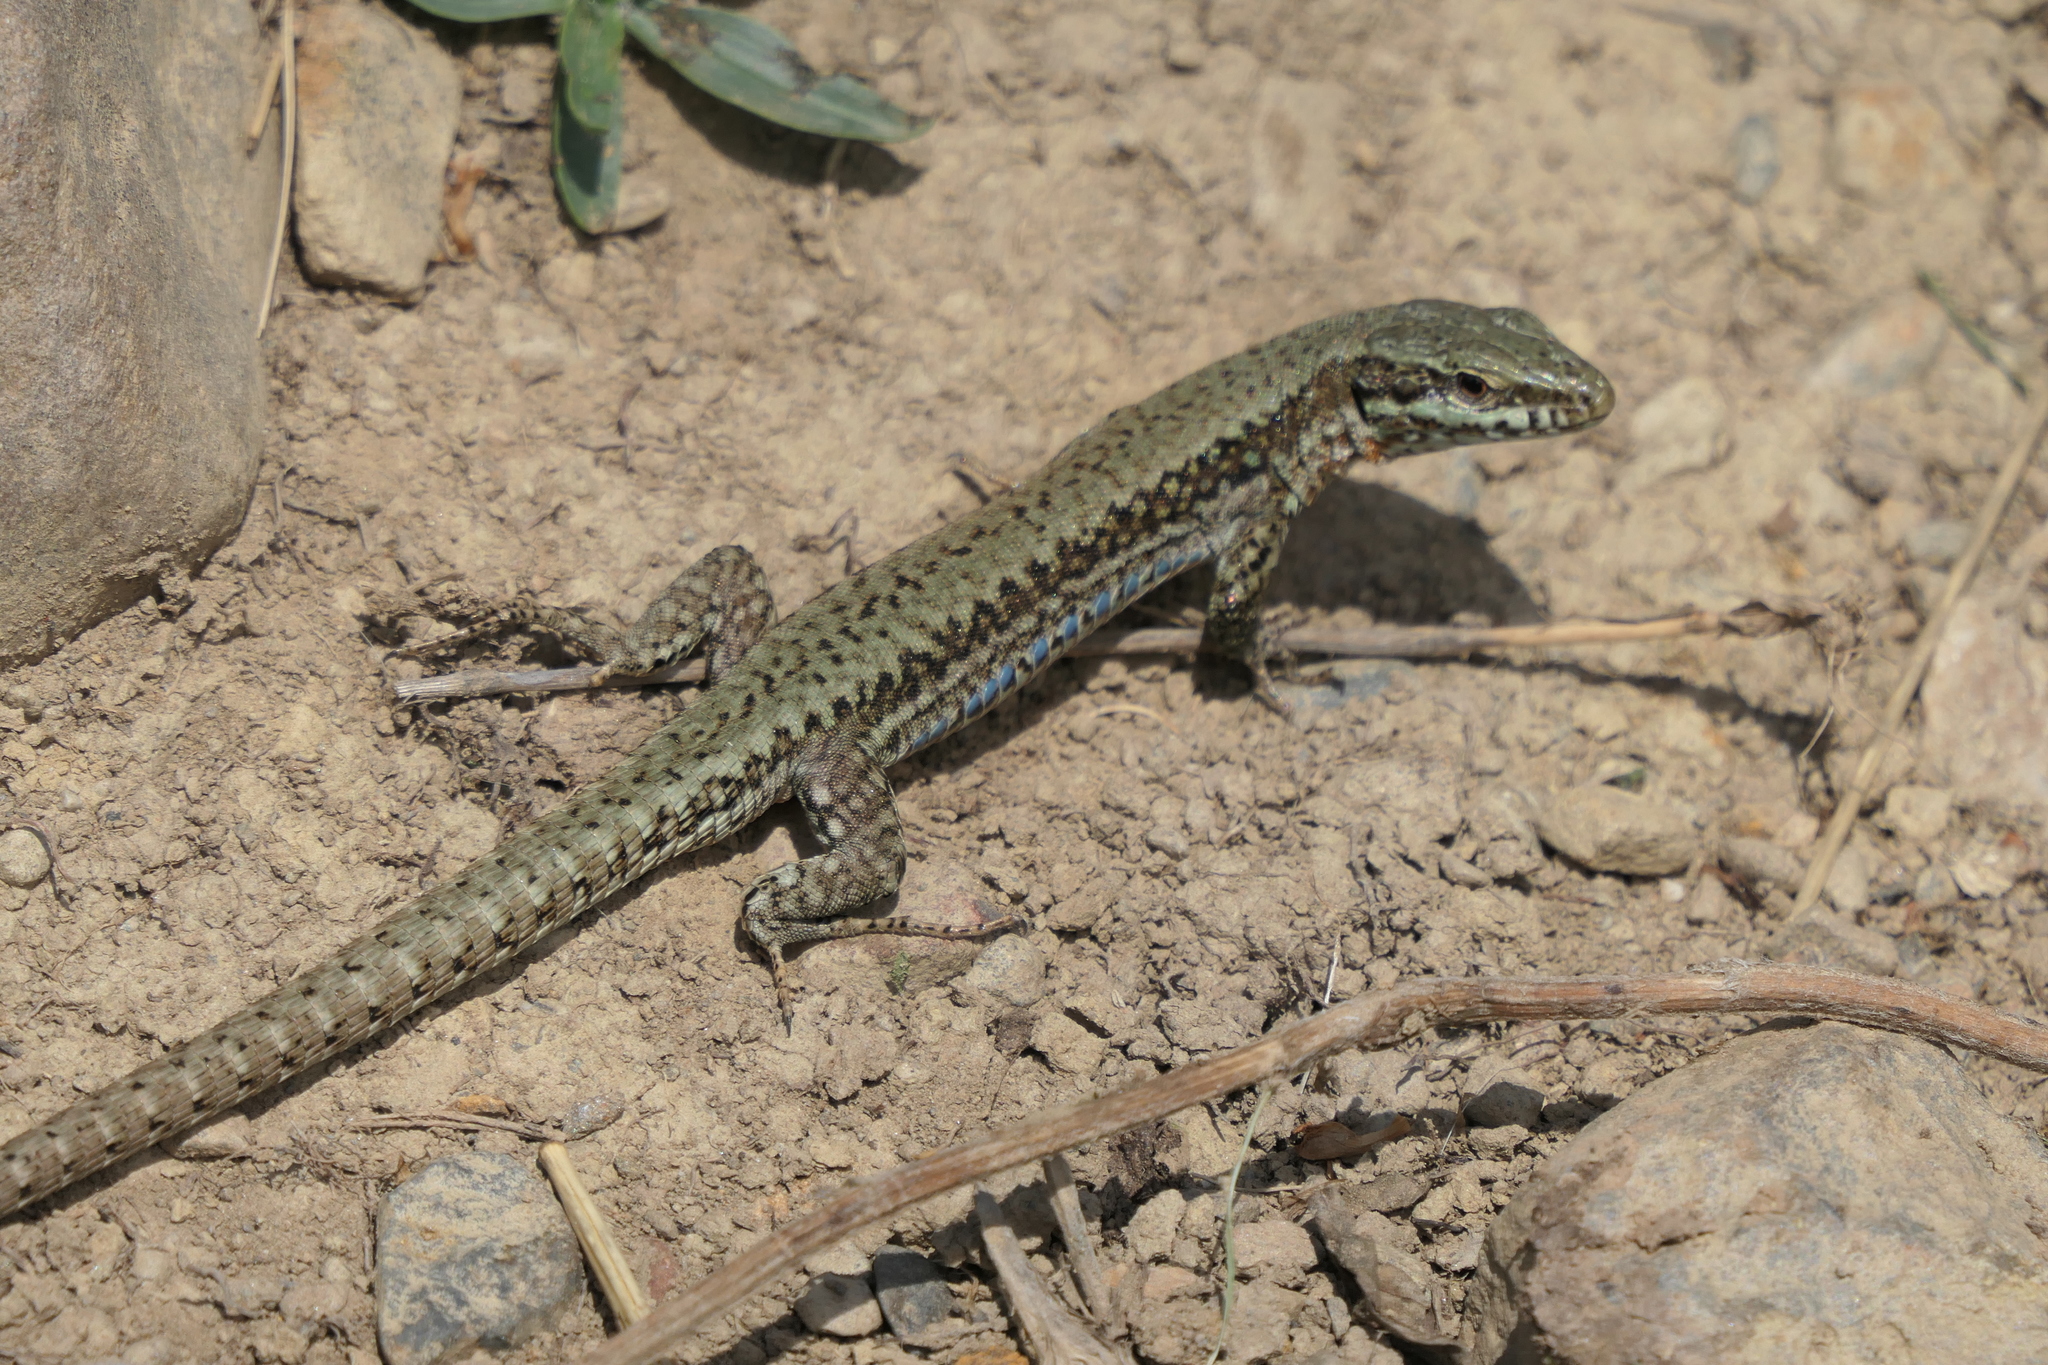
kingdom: Animalia
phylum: Chordata
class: Squamata
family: Lacertidae
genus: Podarcis
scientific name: Podarcis muralis
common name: Common wall lizard
